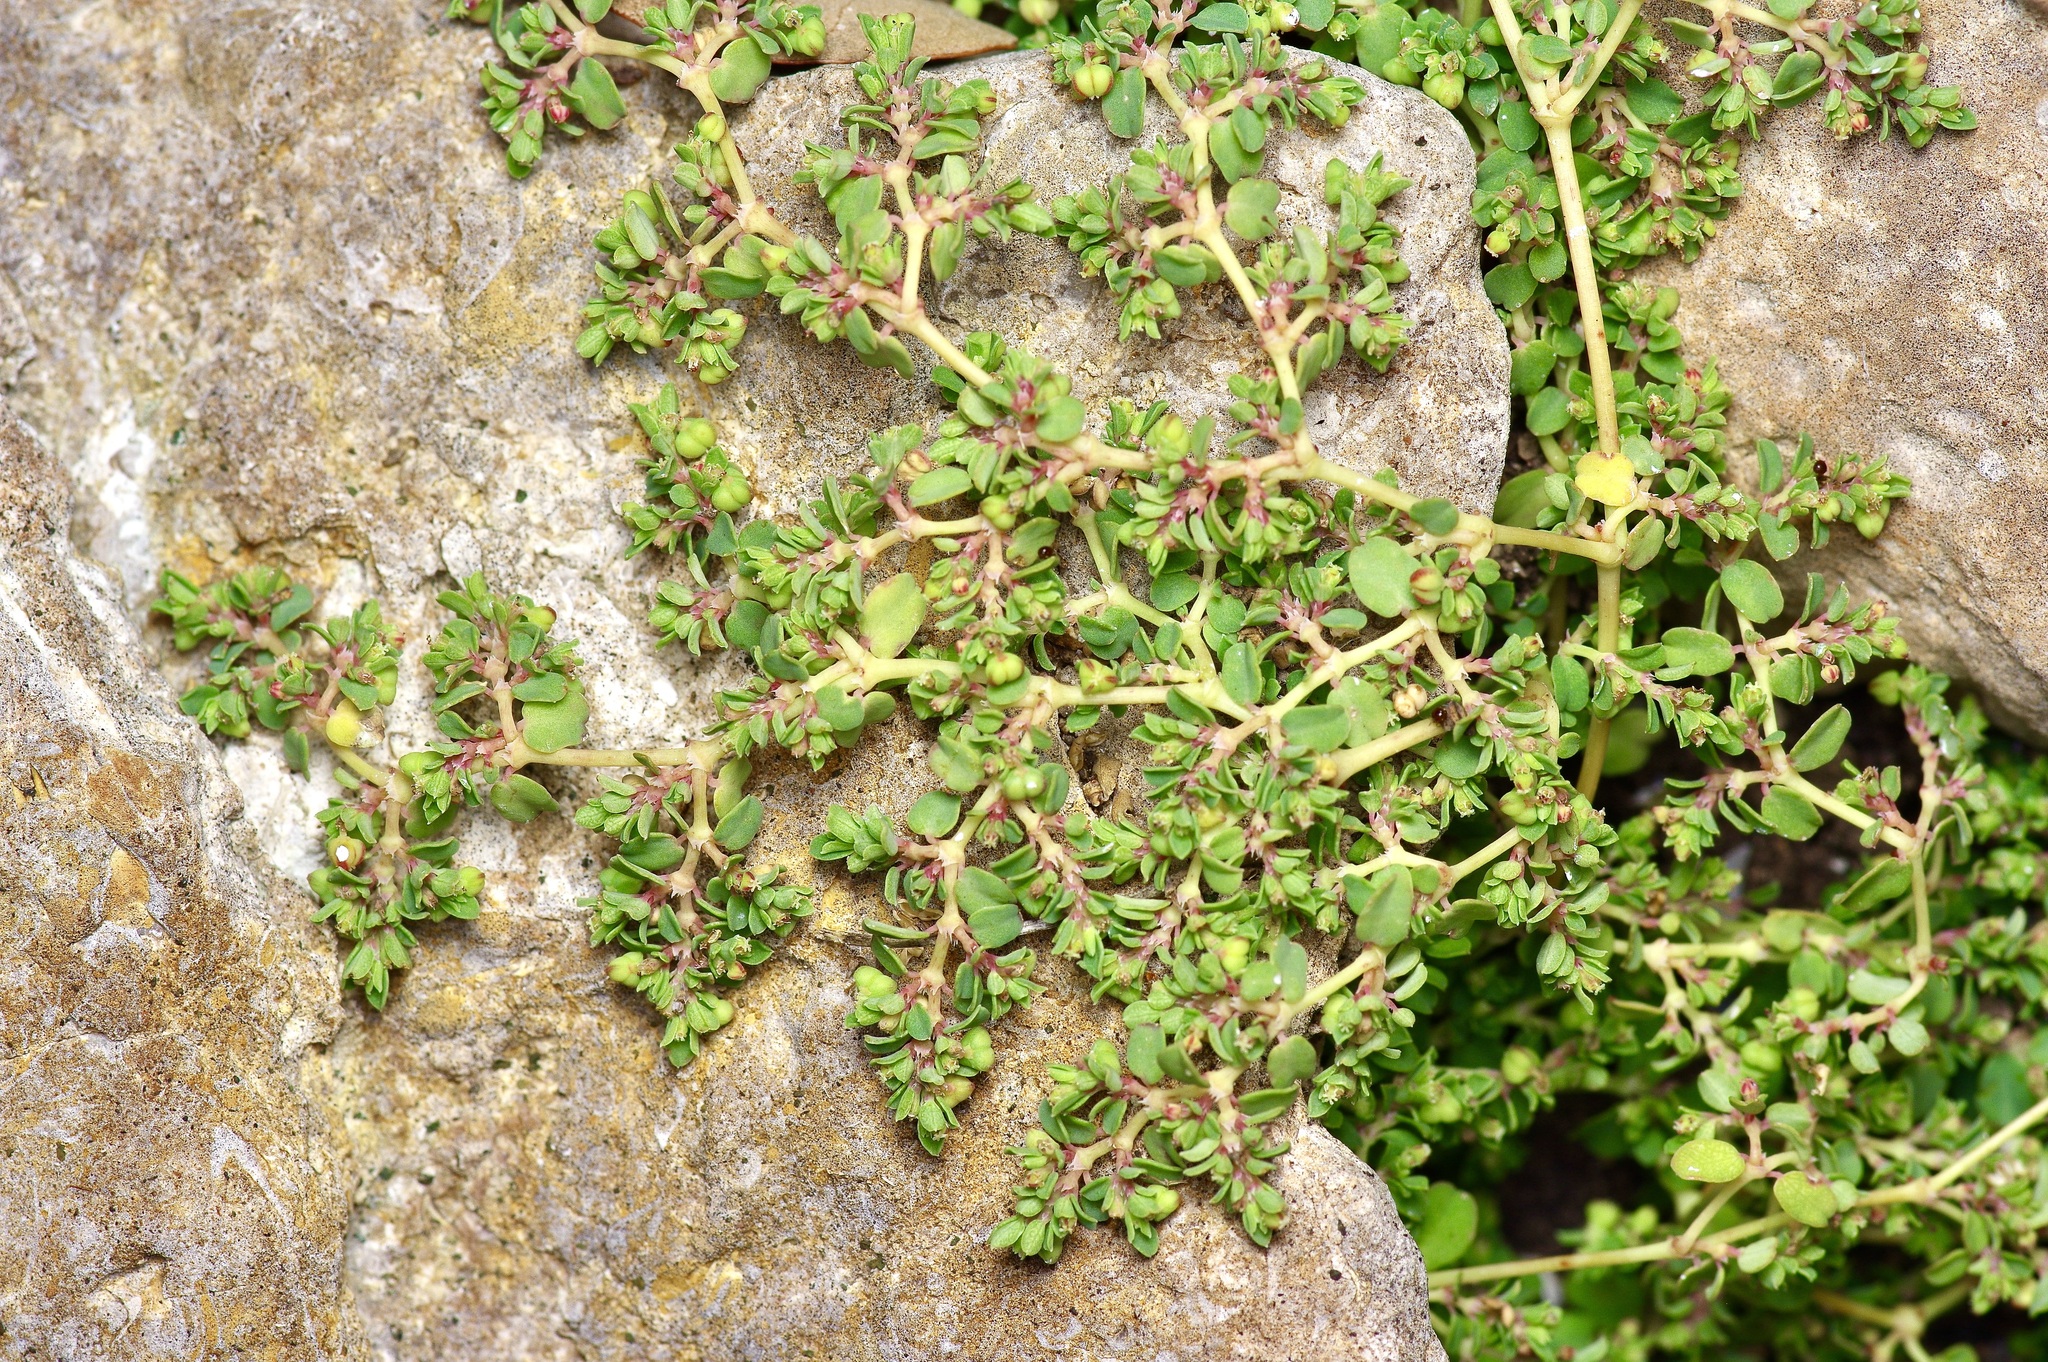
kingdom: Plantae
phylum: Tracheophyta
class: Magnoliopsida
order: Malpighiales
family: Euphorbiaceae
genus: Euphorbia
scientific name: Euphorbia serpens
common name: Matted sandmat
